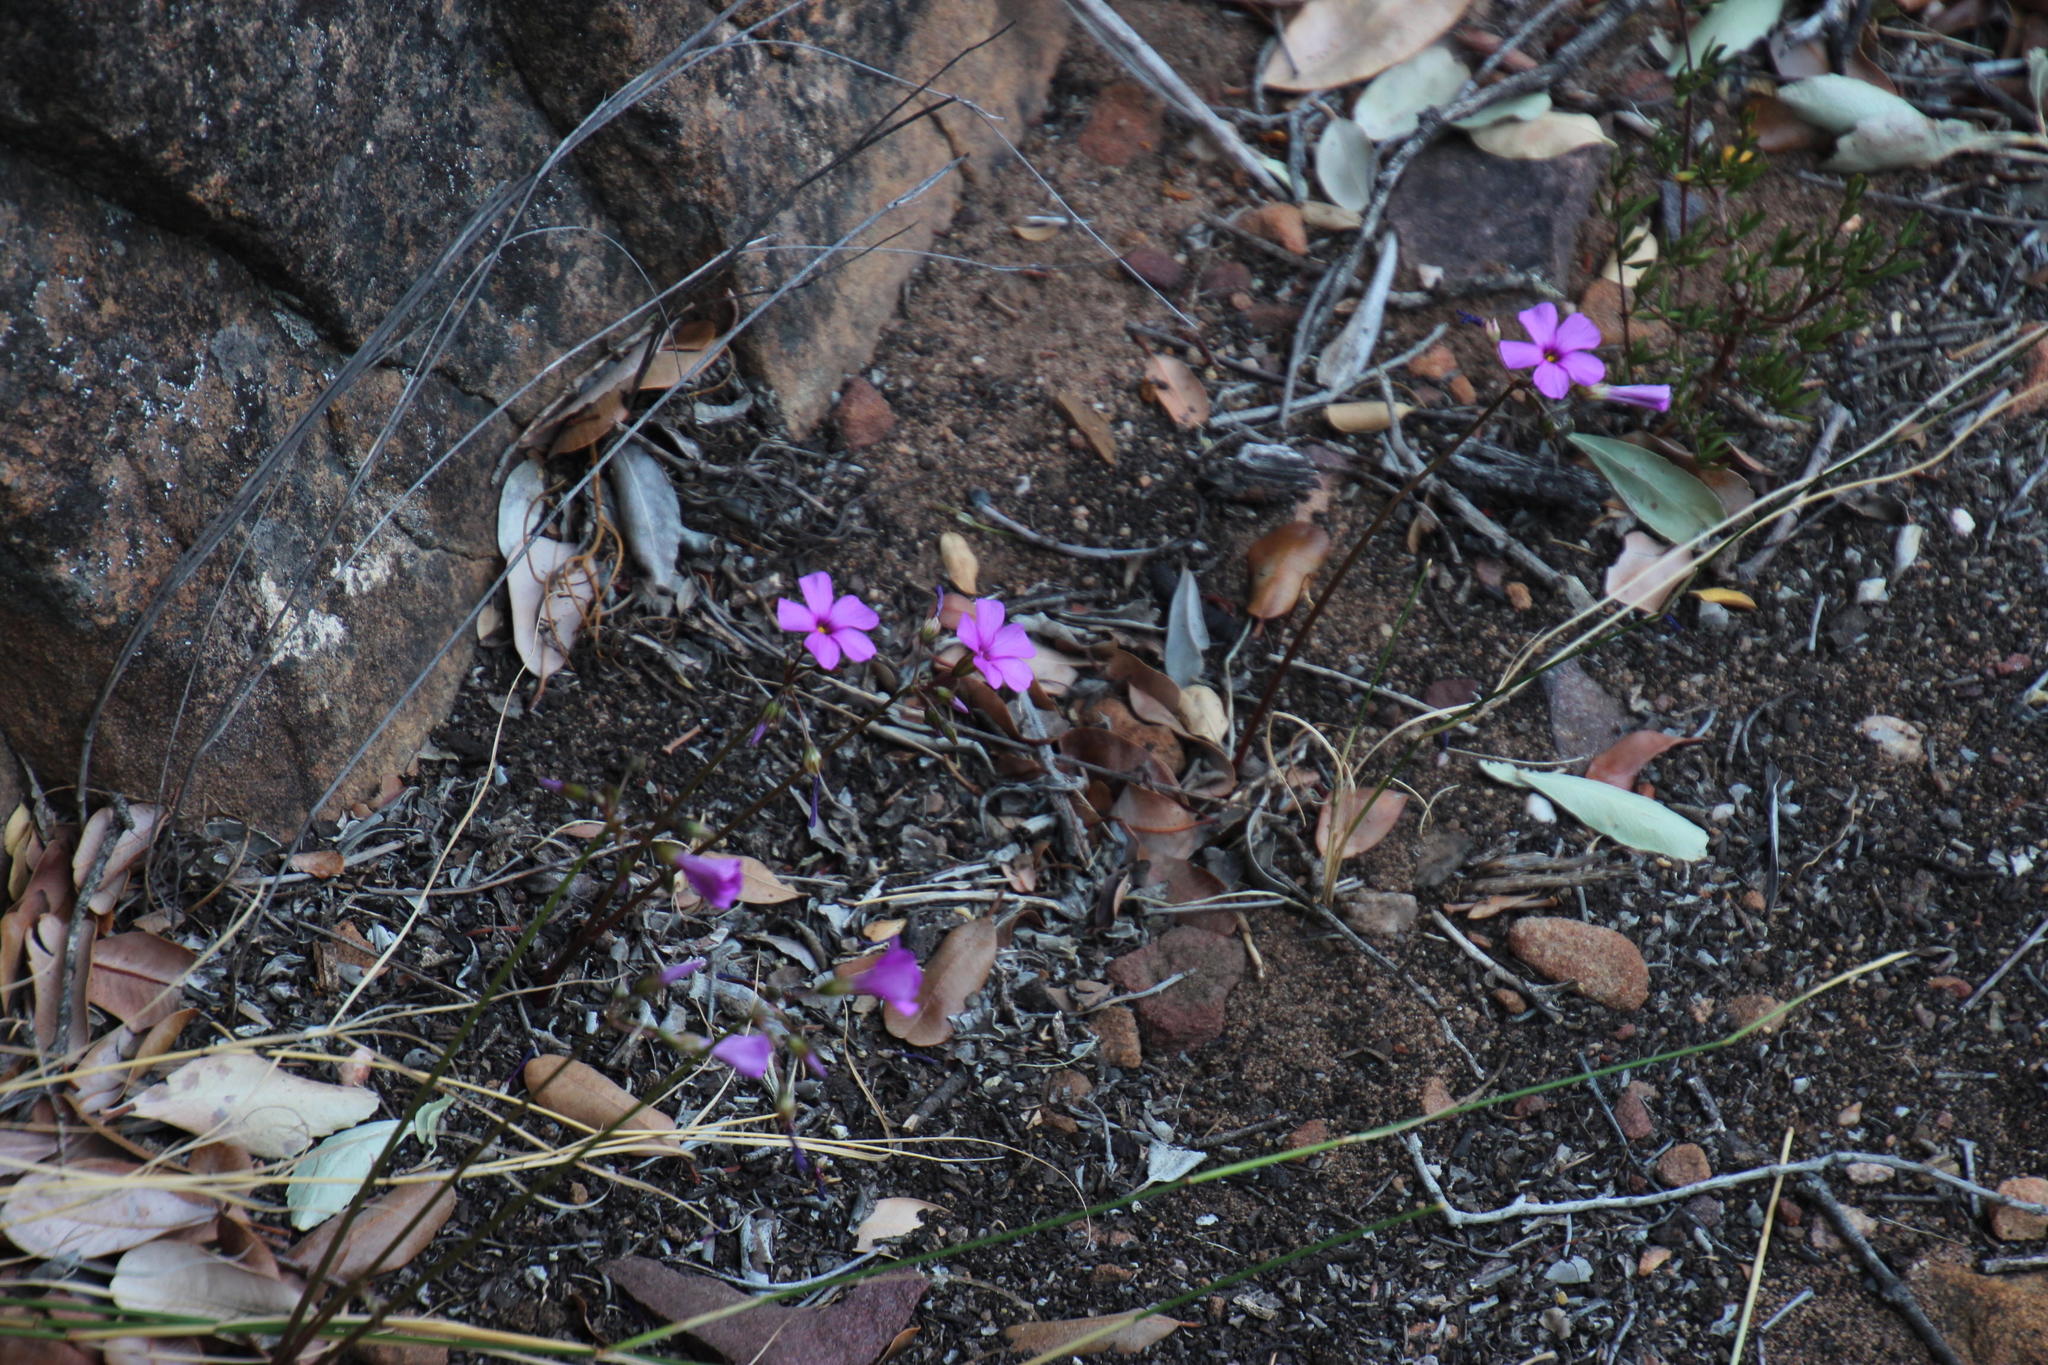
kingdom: Plantae
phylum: Tracheophyta
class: Magnoliopsida
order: Oxalidales
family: Oxalidaceae
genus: Oxalis
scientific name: Oxalis livida
